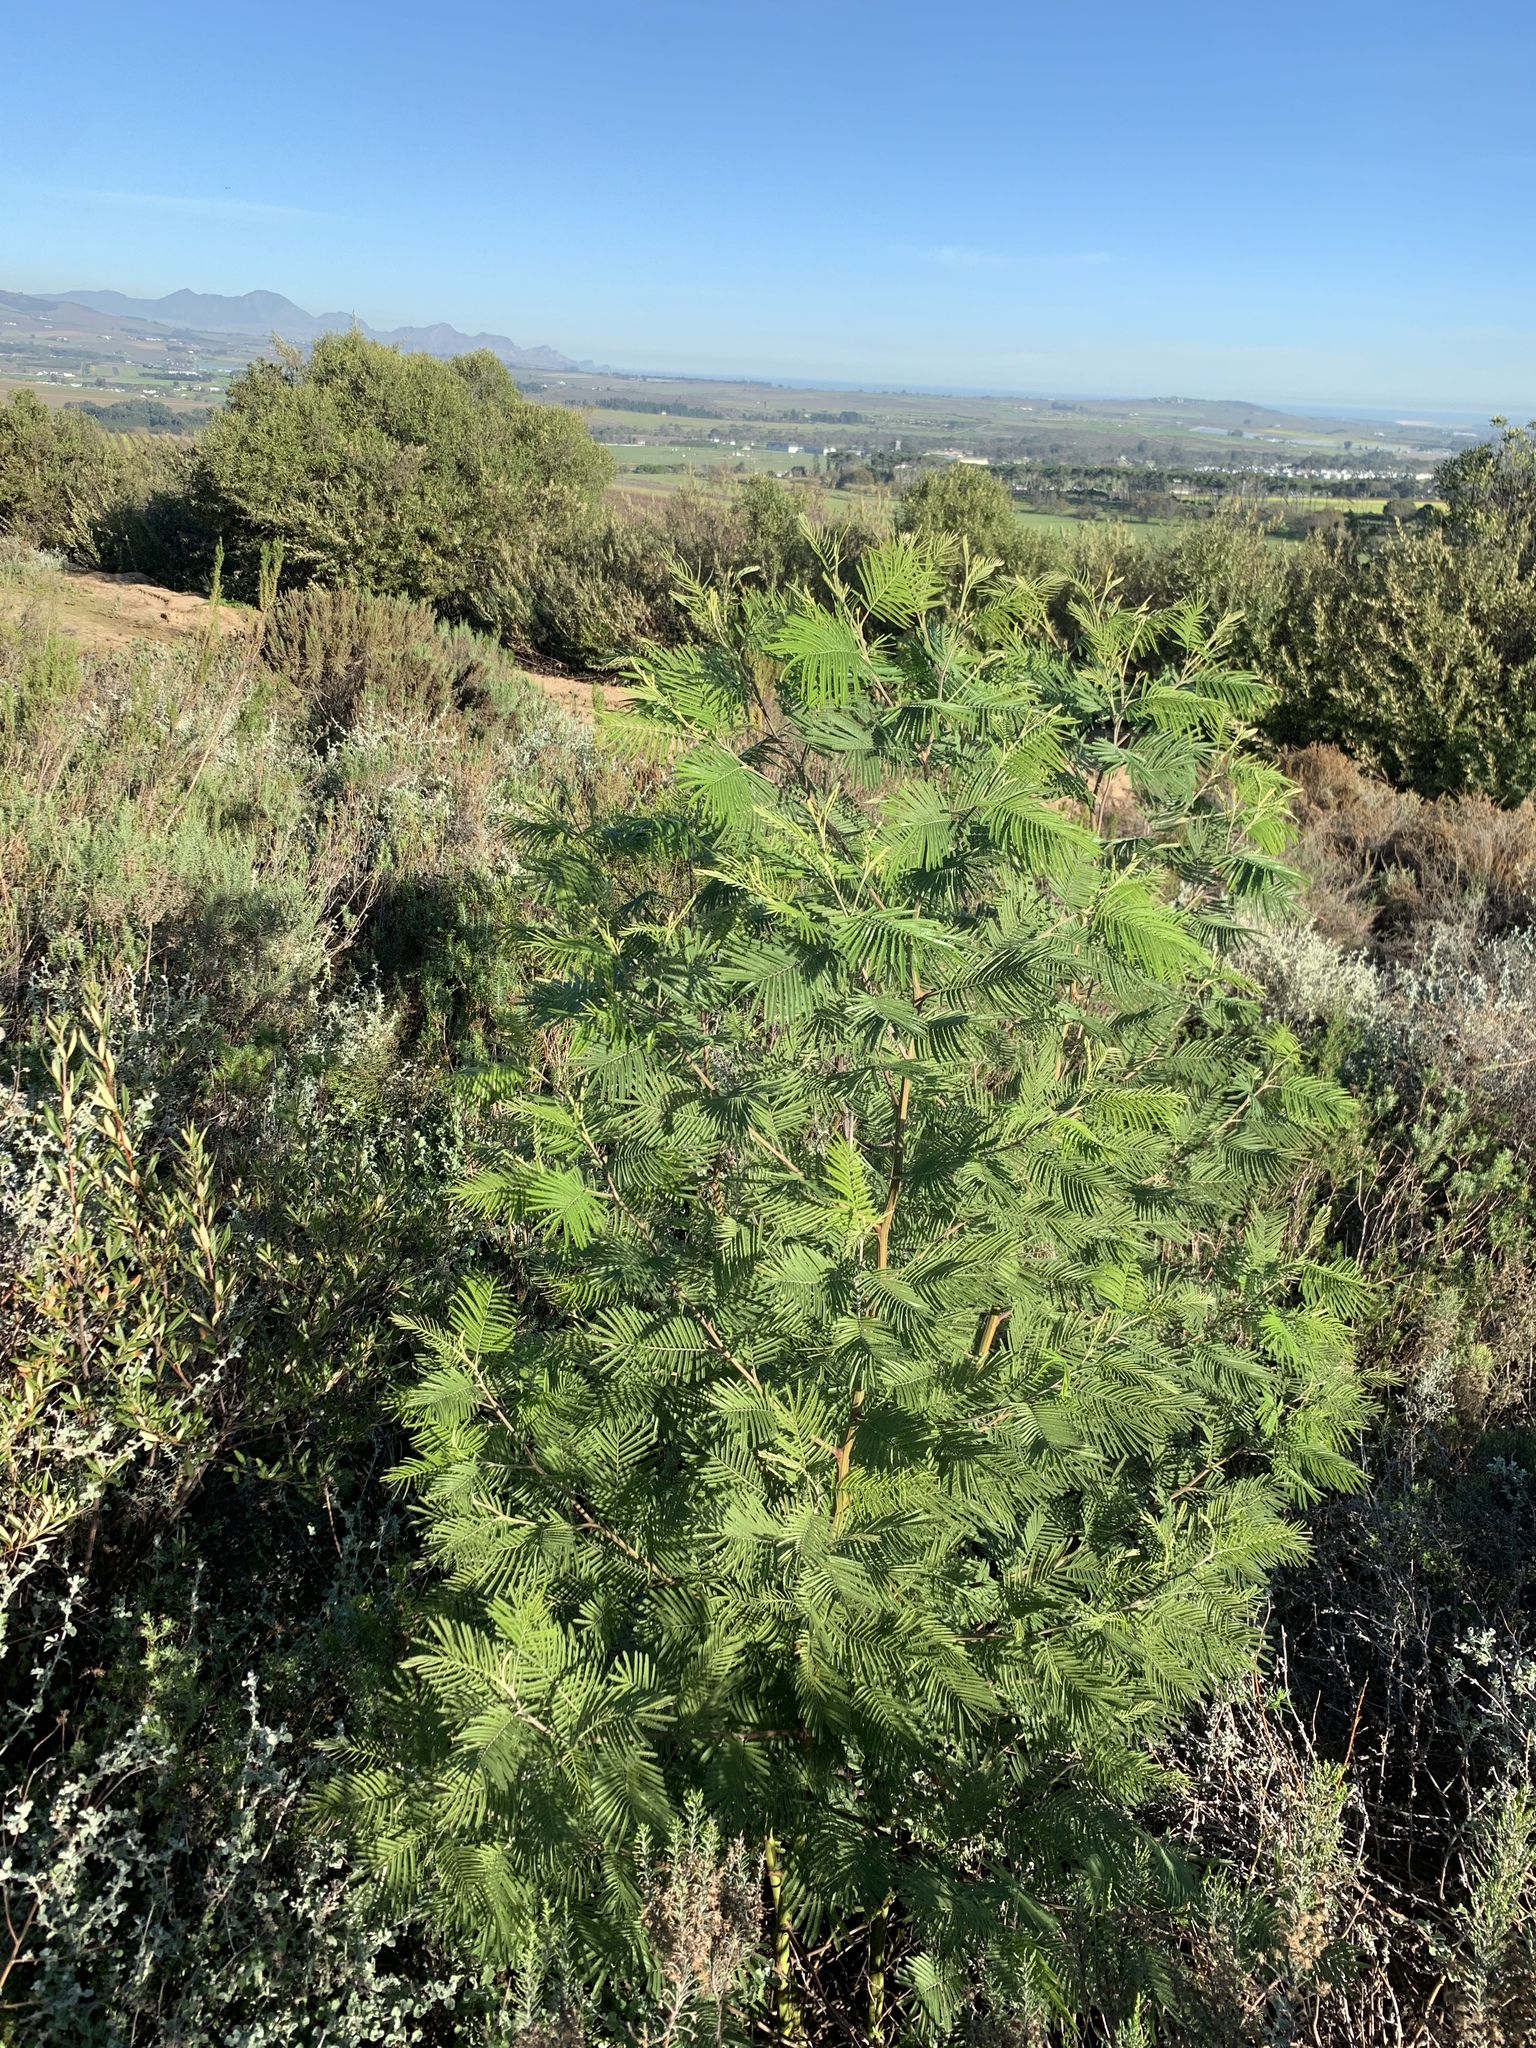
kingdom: Plantae
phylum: Tracheophyta
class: Magnoliopsida
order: Fabales
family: Fabaceae
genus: Acacia
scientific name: Acacia mearnsii
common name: Black wattle
